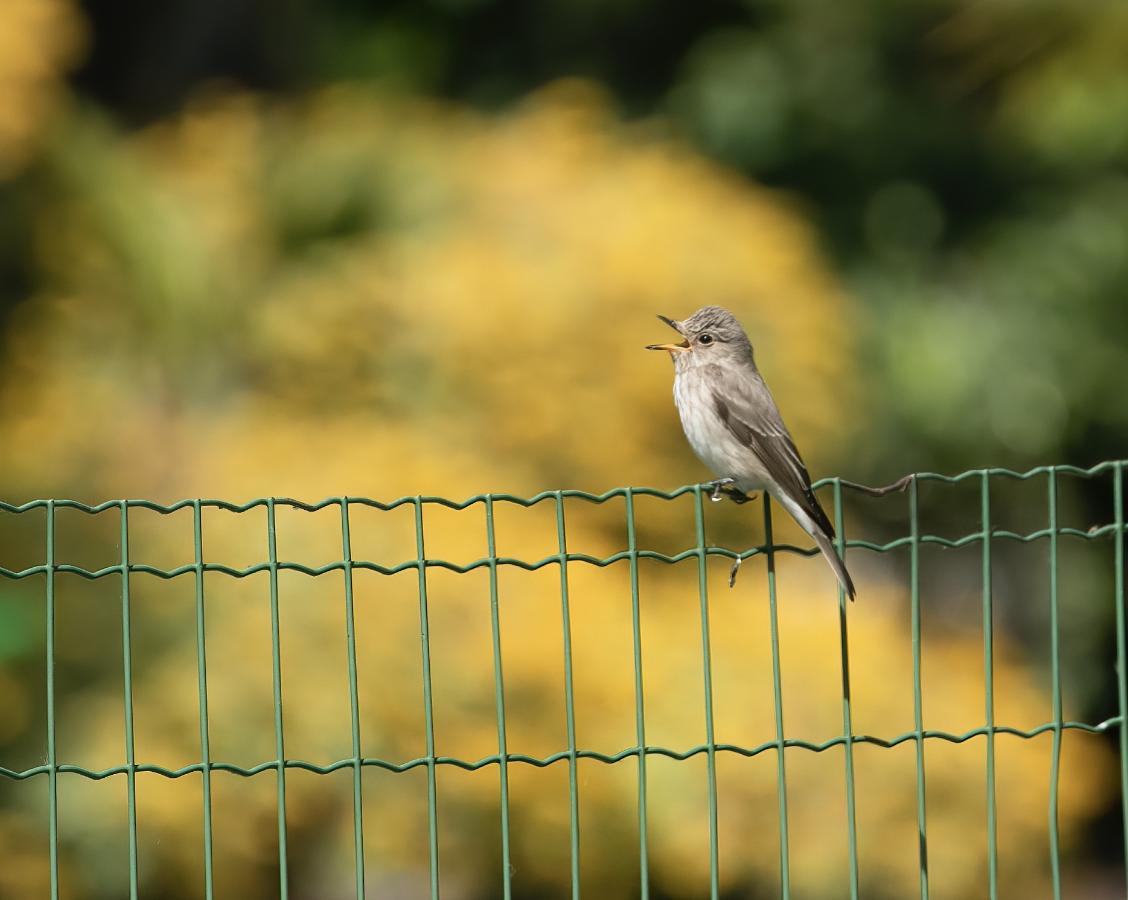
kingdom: Animalia
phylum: Chordata
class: Aves
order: Passeriformes
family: Muscicapidae
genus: Muscicapa
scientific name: Muscicapa striata
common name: Spotted flycatcher
